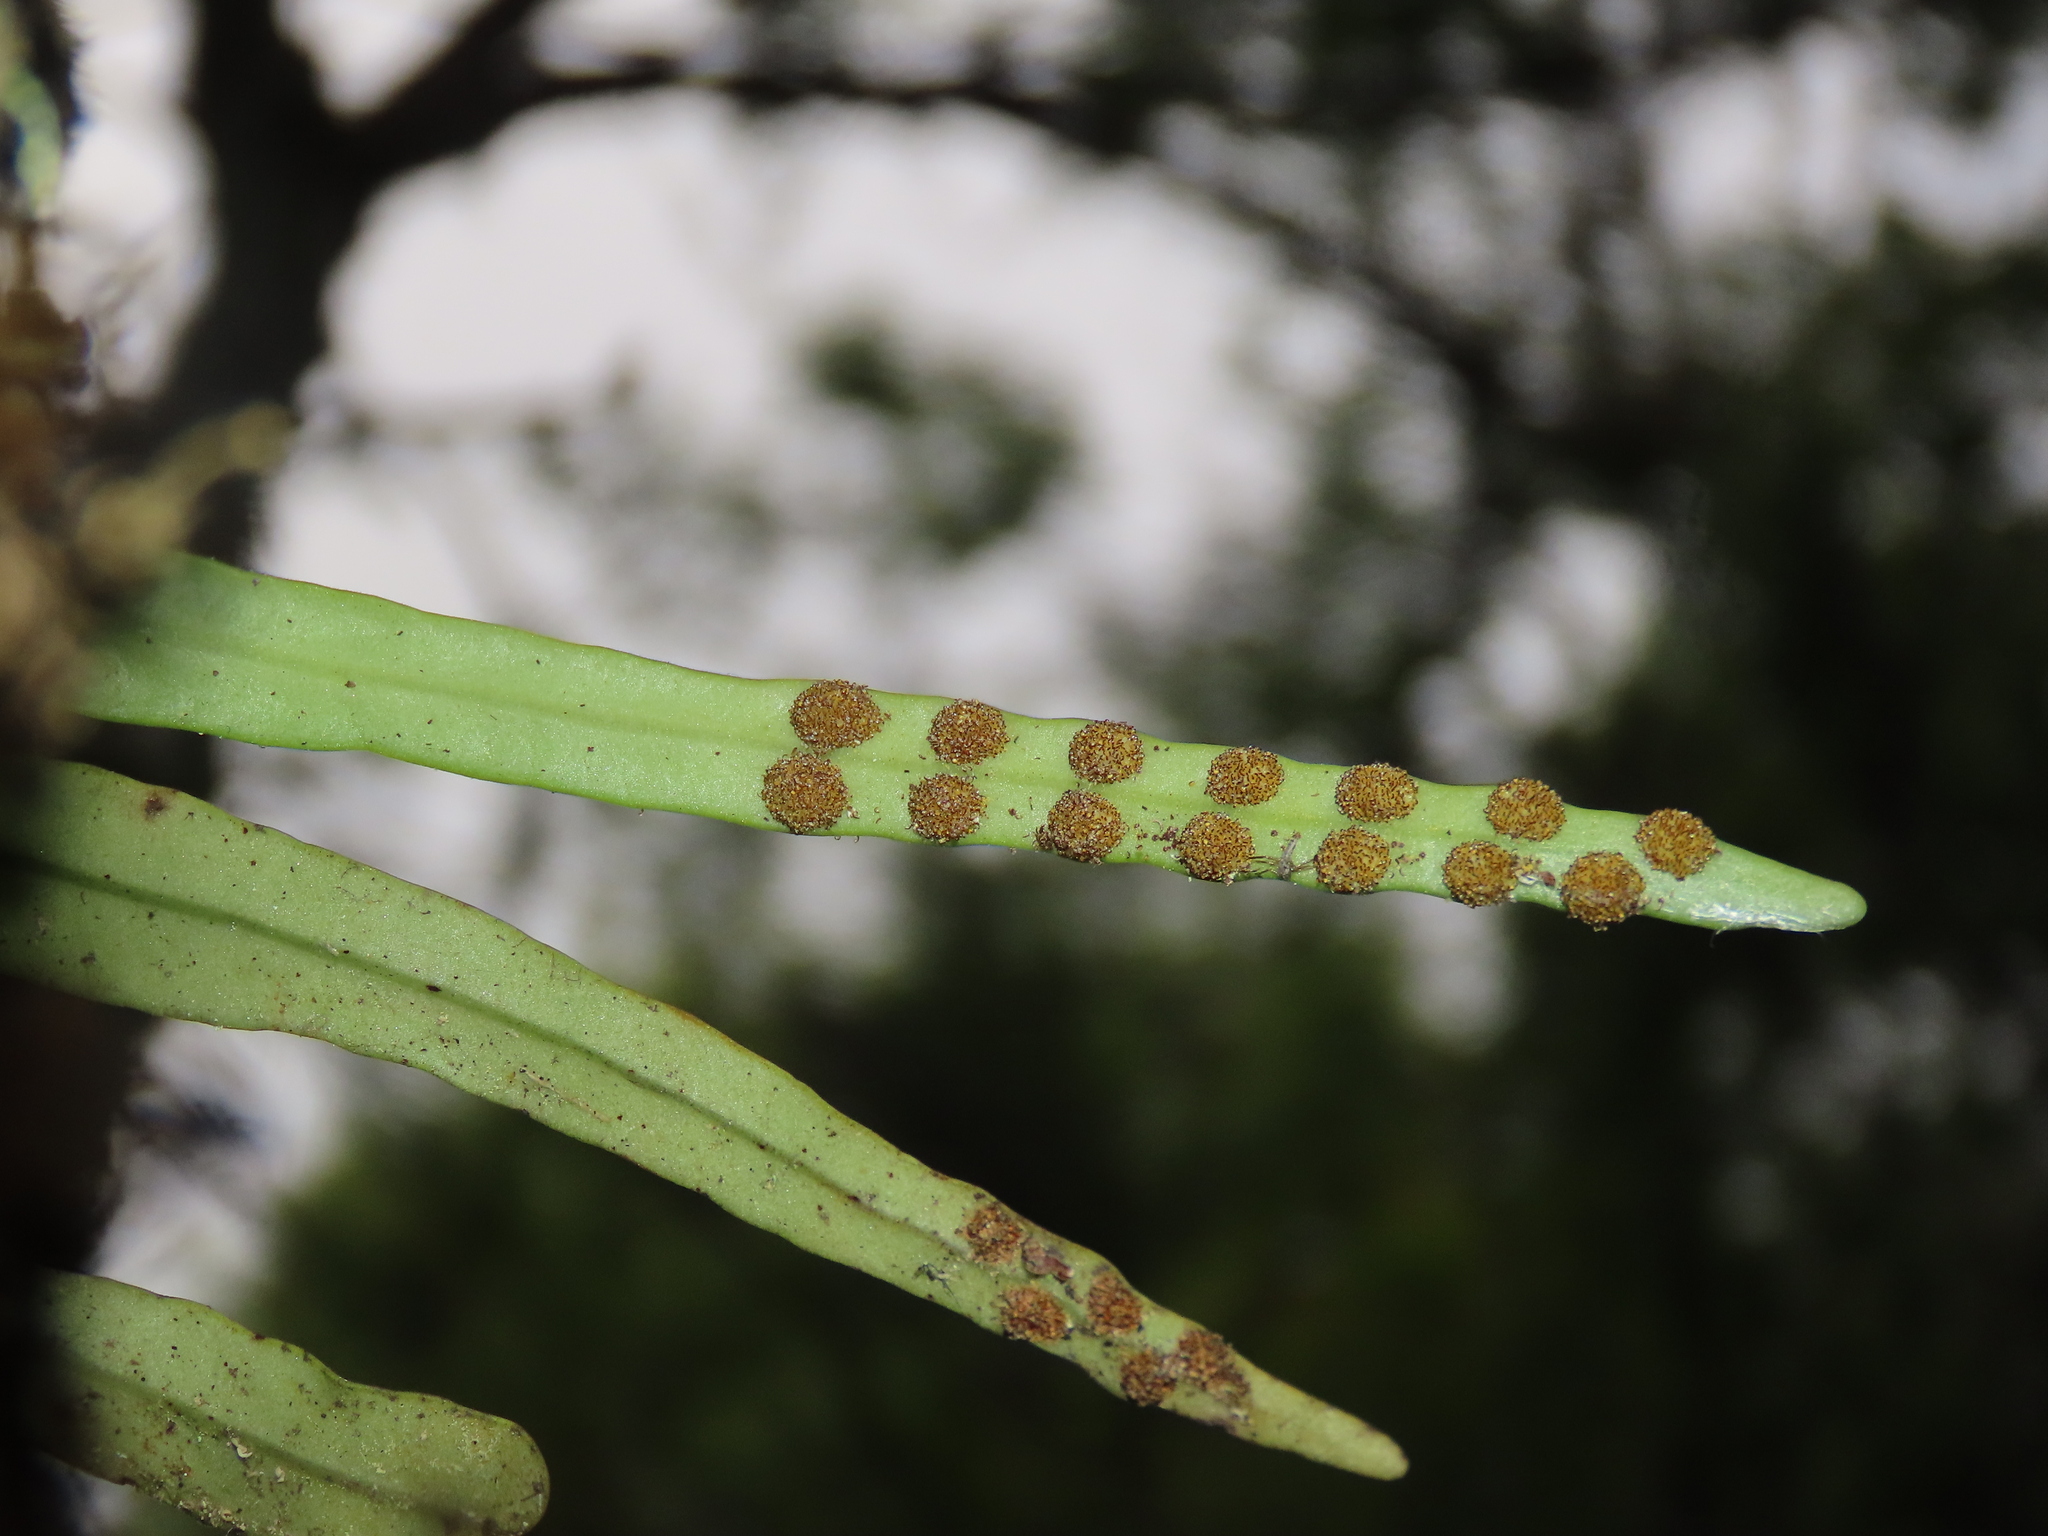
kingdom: Plantae
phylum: Tracheophyta
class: Polypodiopsida
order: Polypodiales
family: Polypodiaceae
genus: Lepisorus
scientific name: Lepisorus monilisorus
